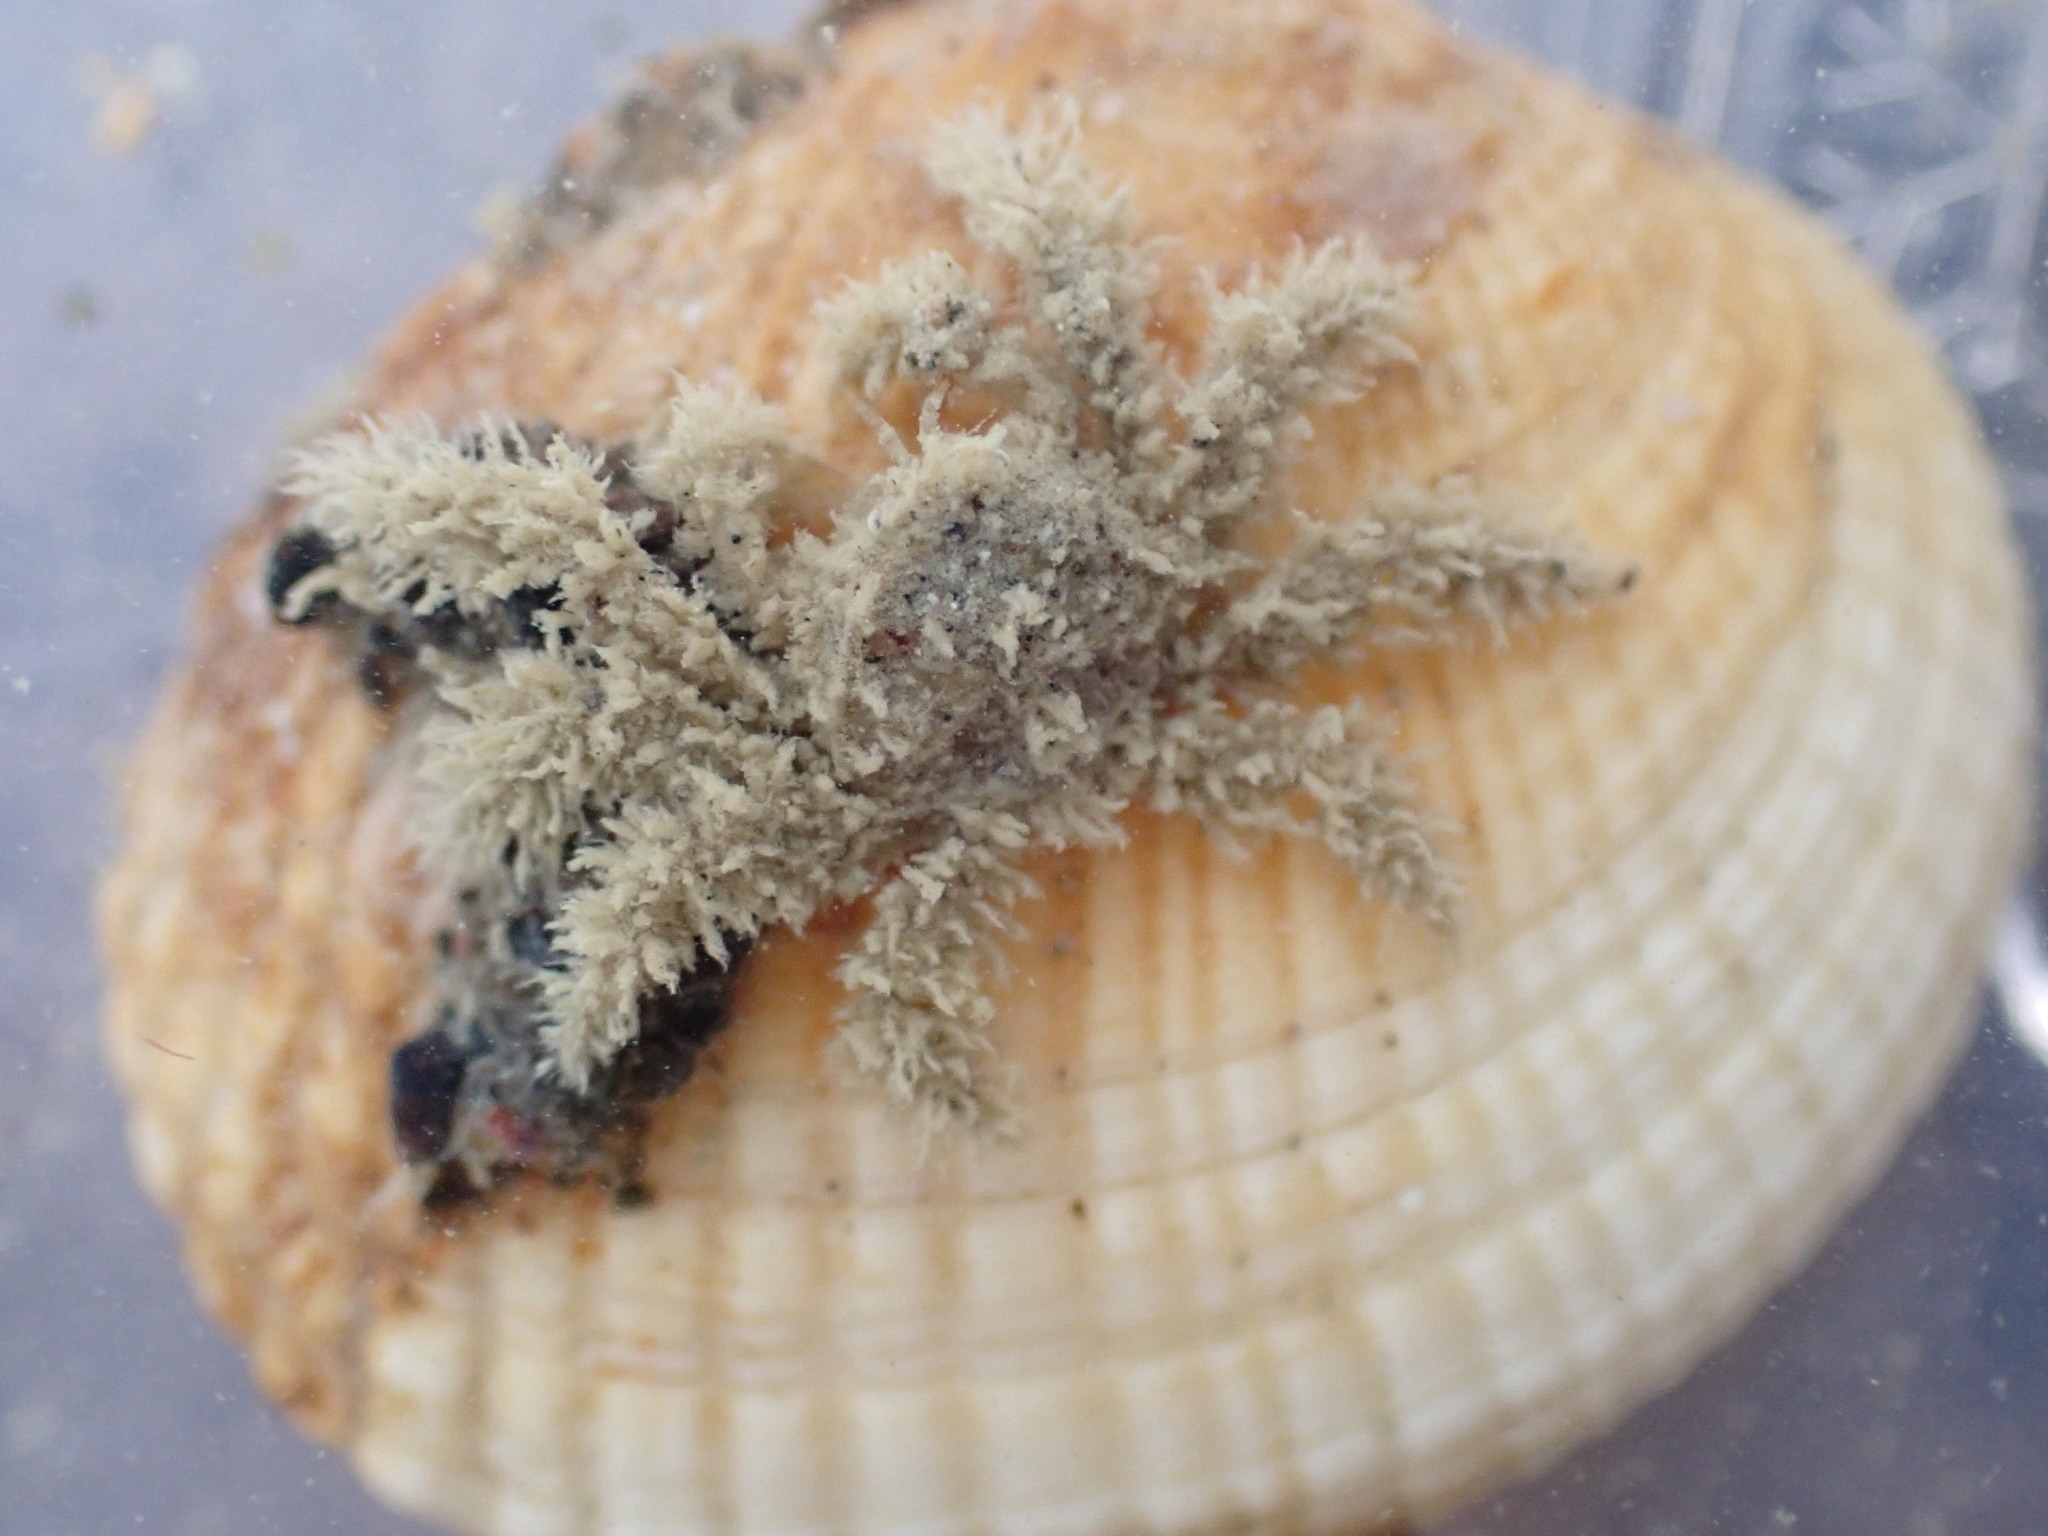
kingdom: Animalia
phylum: Arthropoda
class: Malacostraca
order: Decapoda
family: Hymenosomatidae
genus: Neohymenicus
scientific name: Neohymenicus pubescens
